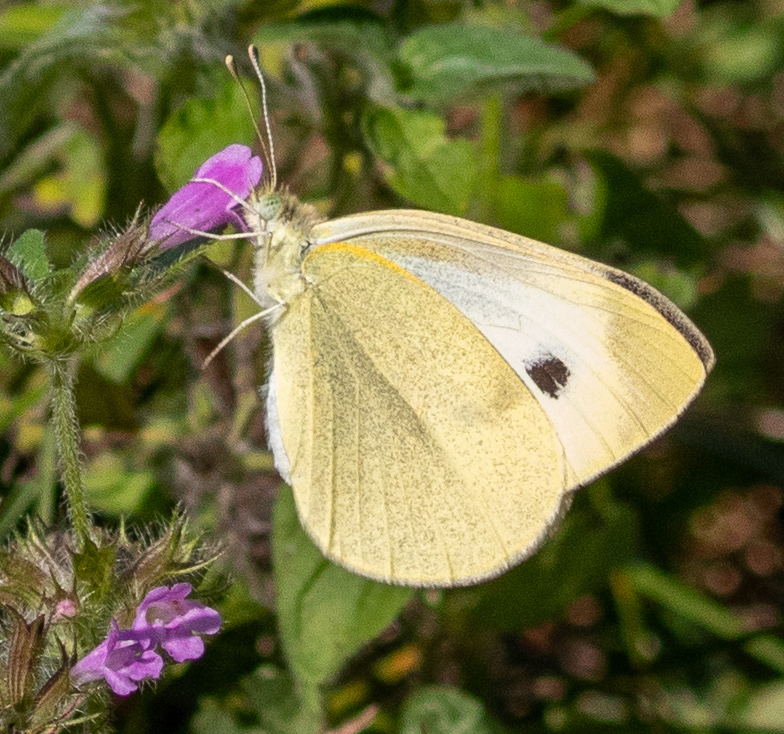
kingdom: Animalia
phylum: Arthropoda
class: Insecta
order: Lepidoptera
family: Pieridae
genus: Pieris
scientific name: Pieris rapae
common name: Small white
